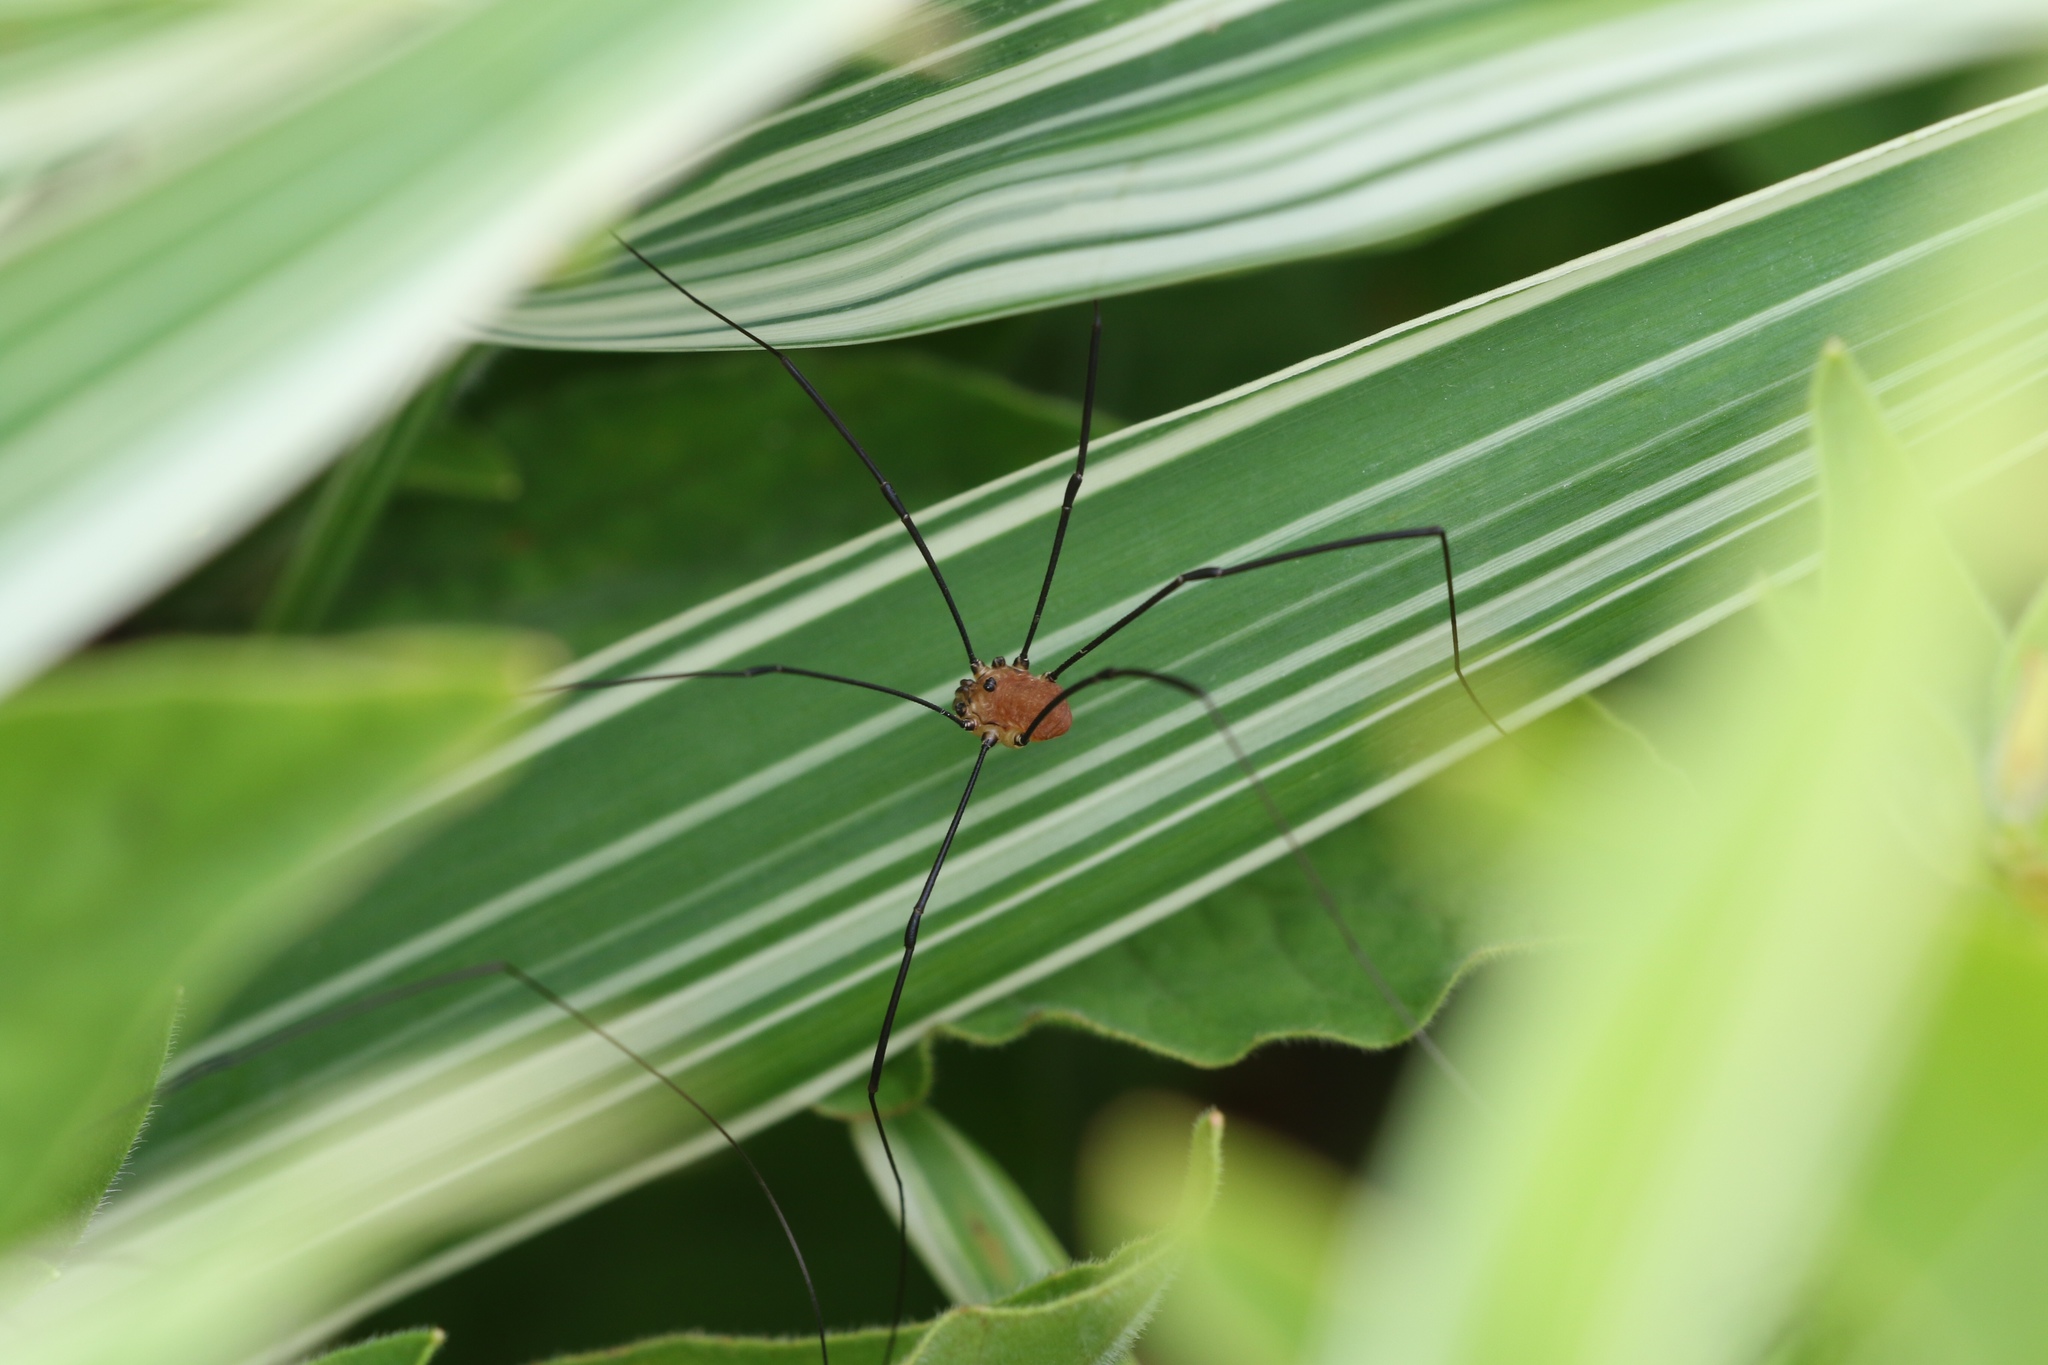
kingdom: Animalia
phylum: Arthropoda
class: Arachnida
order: Opiliones
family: Sclerosomatidae
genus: Leiobunum
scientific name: Leiobunum rotundum
